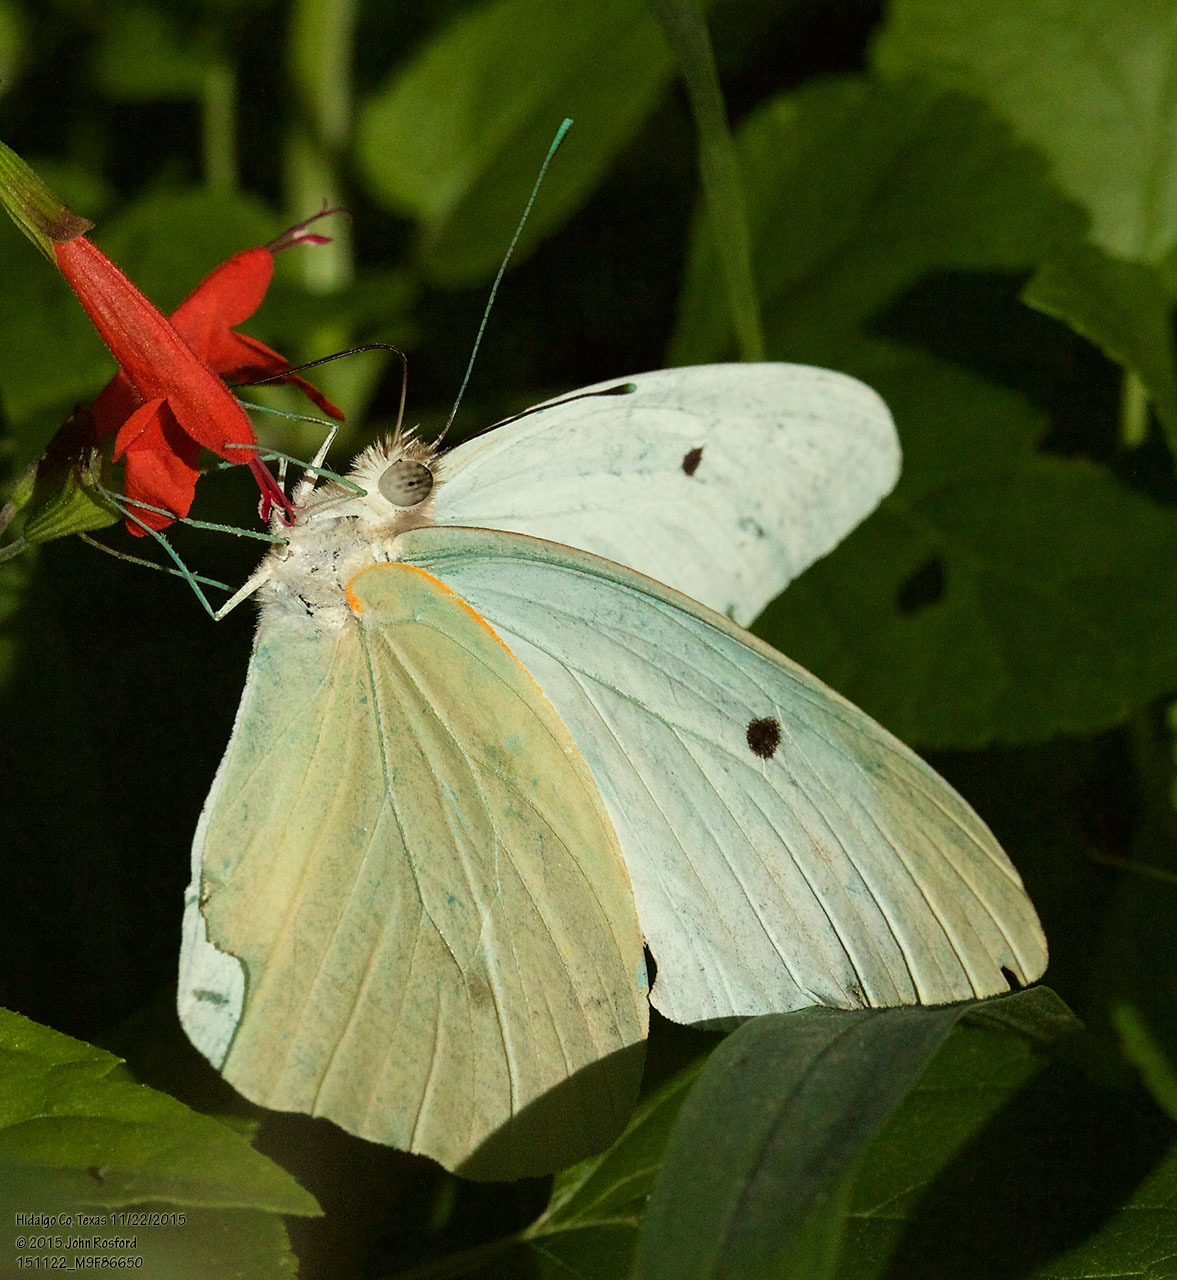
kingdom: Animalia
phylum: Arthropoda
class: Insecta
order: Lepidoptera
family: Pieridae
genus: Ganyra
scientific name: Ganyra josephina
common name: Giant white
